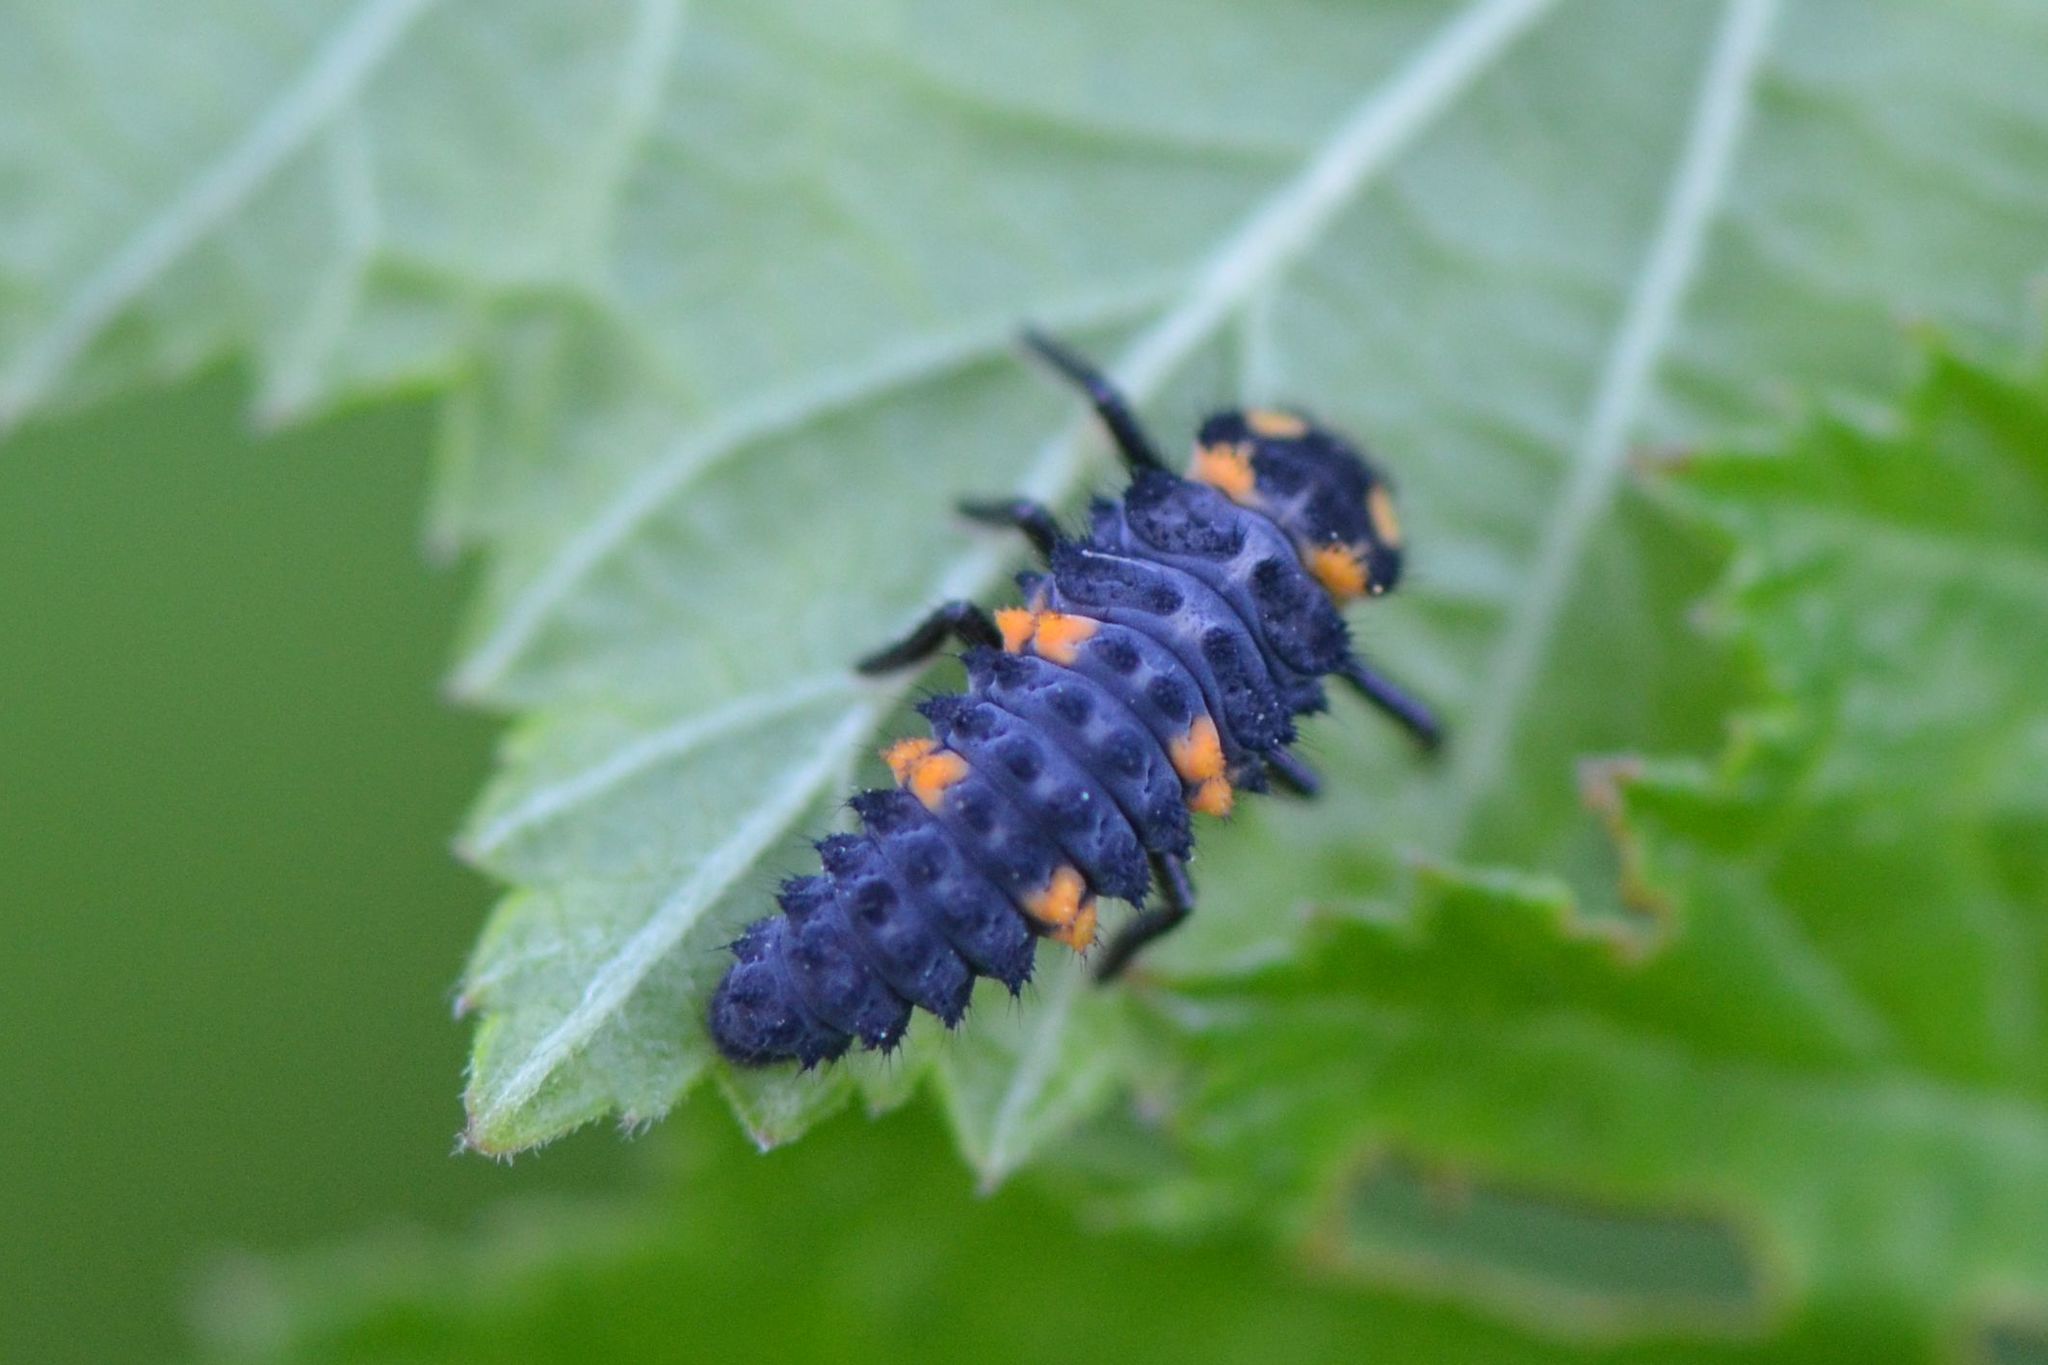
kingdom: Animalia
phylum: Arthropoda
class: Insecta
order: Coleoptera
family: Coccinellidae
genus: Coccinella
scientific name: Coccinella septempunctata
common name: Sevenspotted lady beetle
